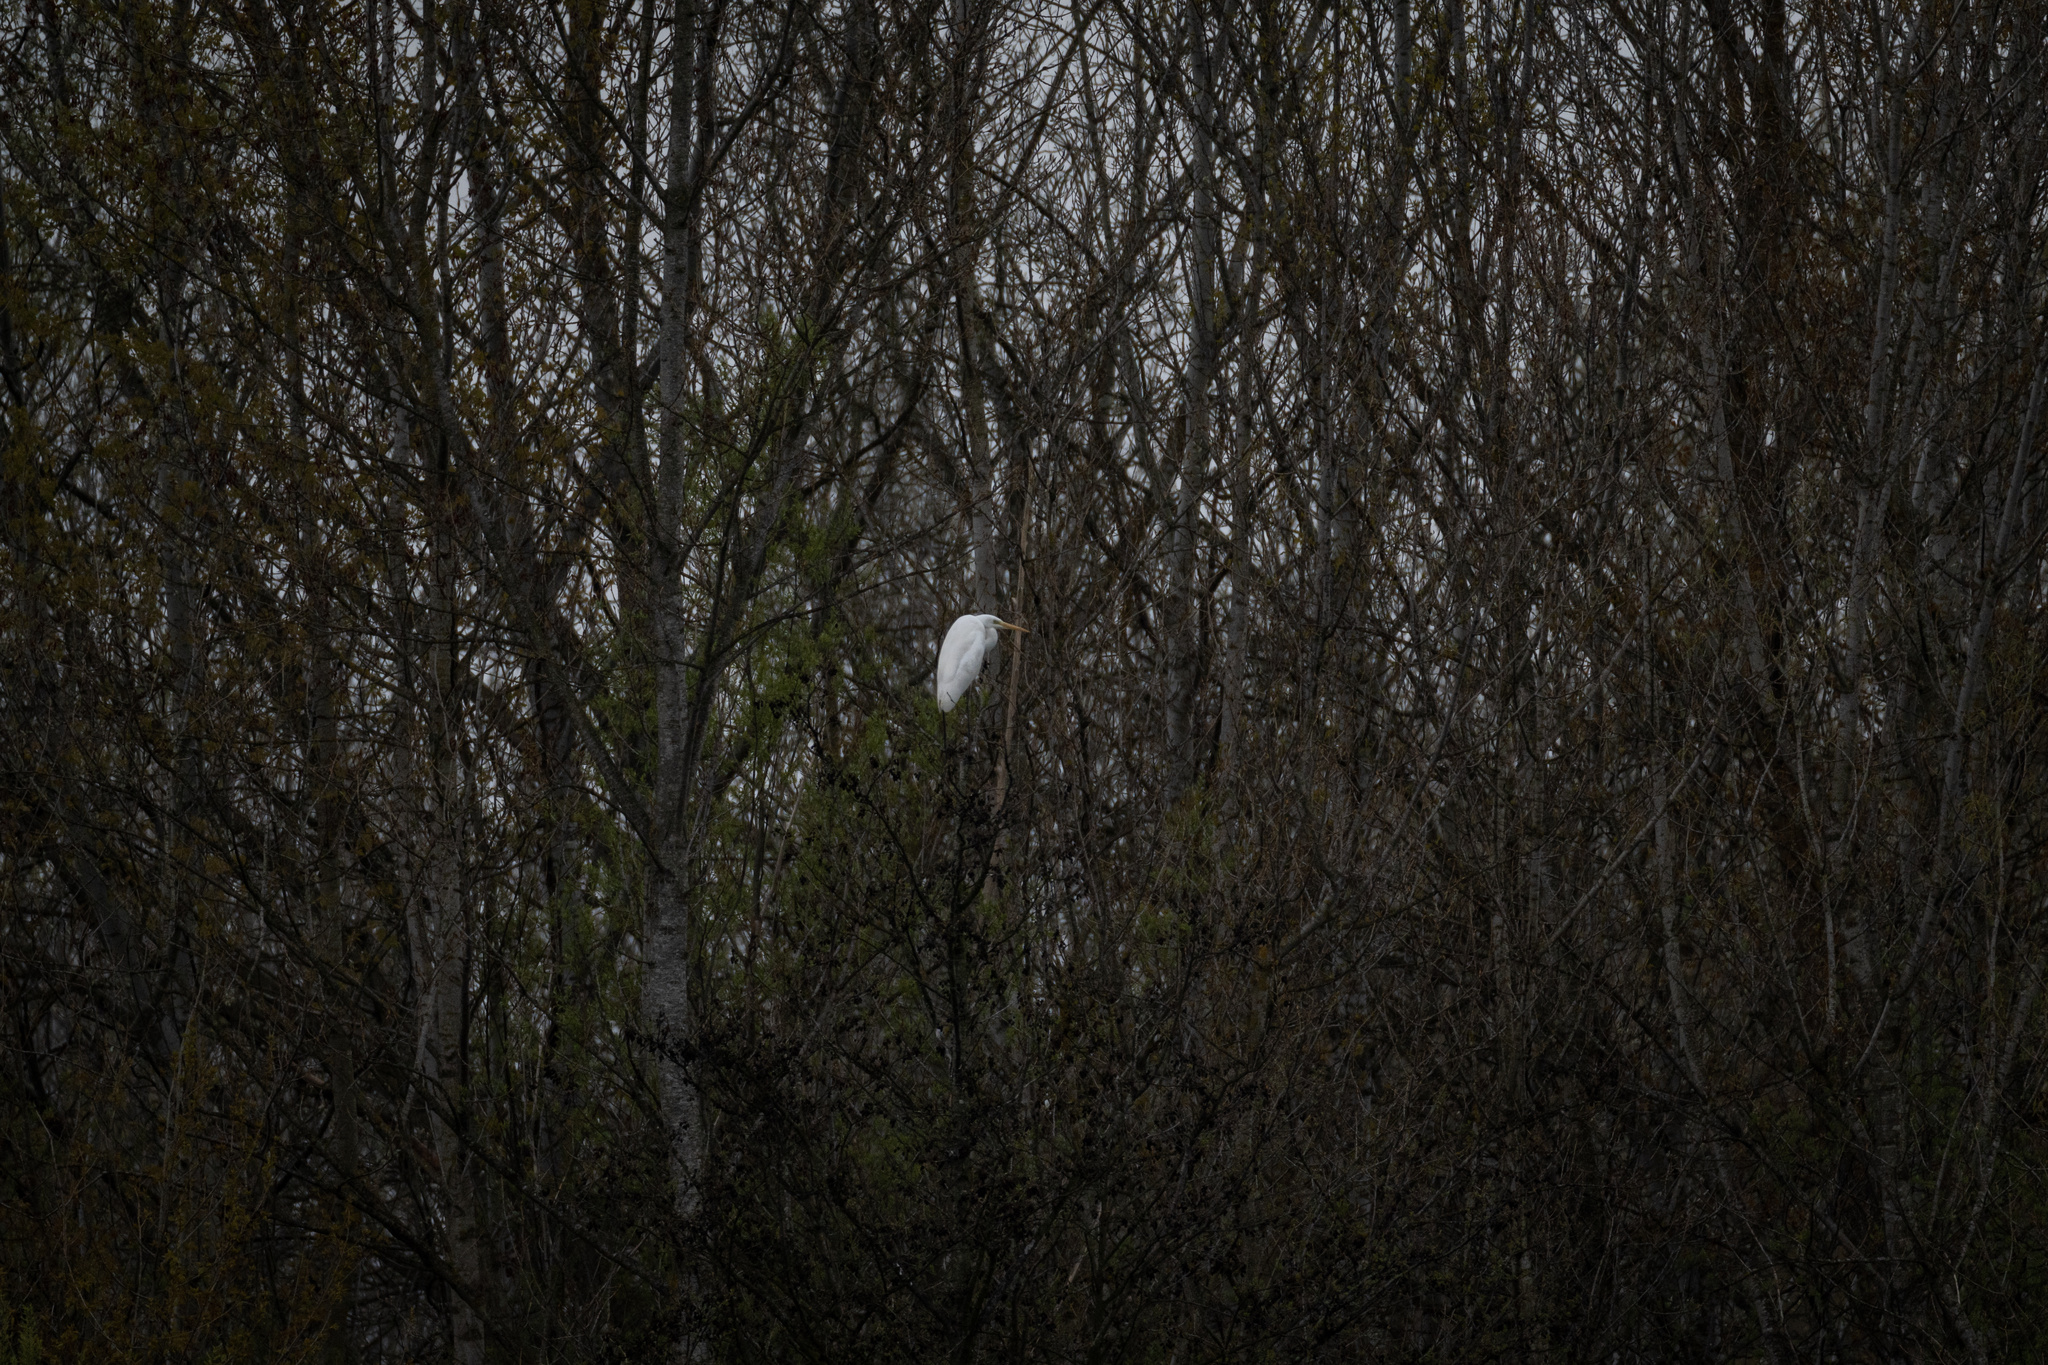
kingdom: Animalia
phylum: Chordata
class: Aves
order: Pelecaniformes
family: Ardeidae
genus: Ardea
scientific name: Ardea alba
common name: Great egret
